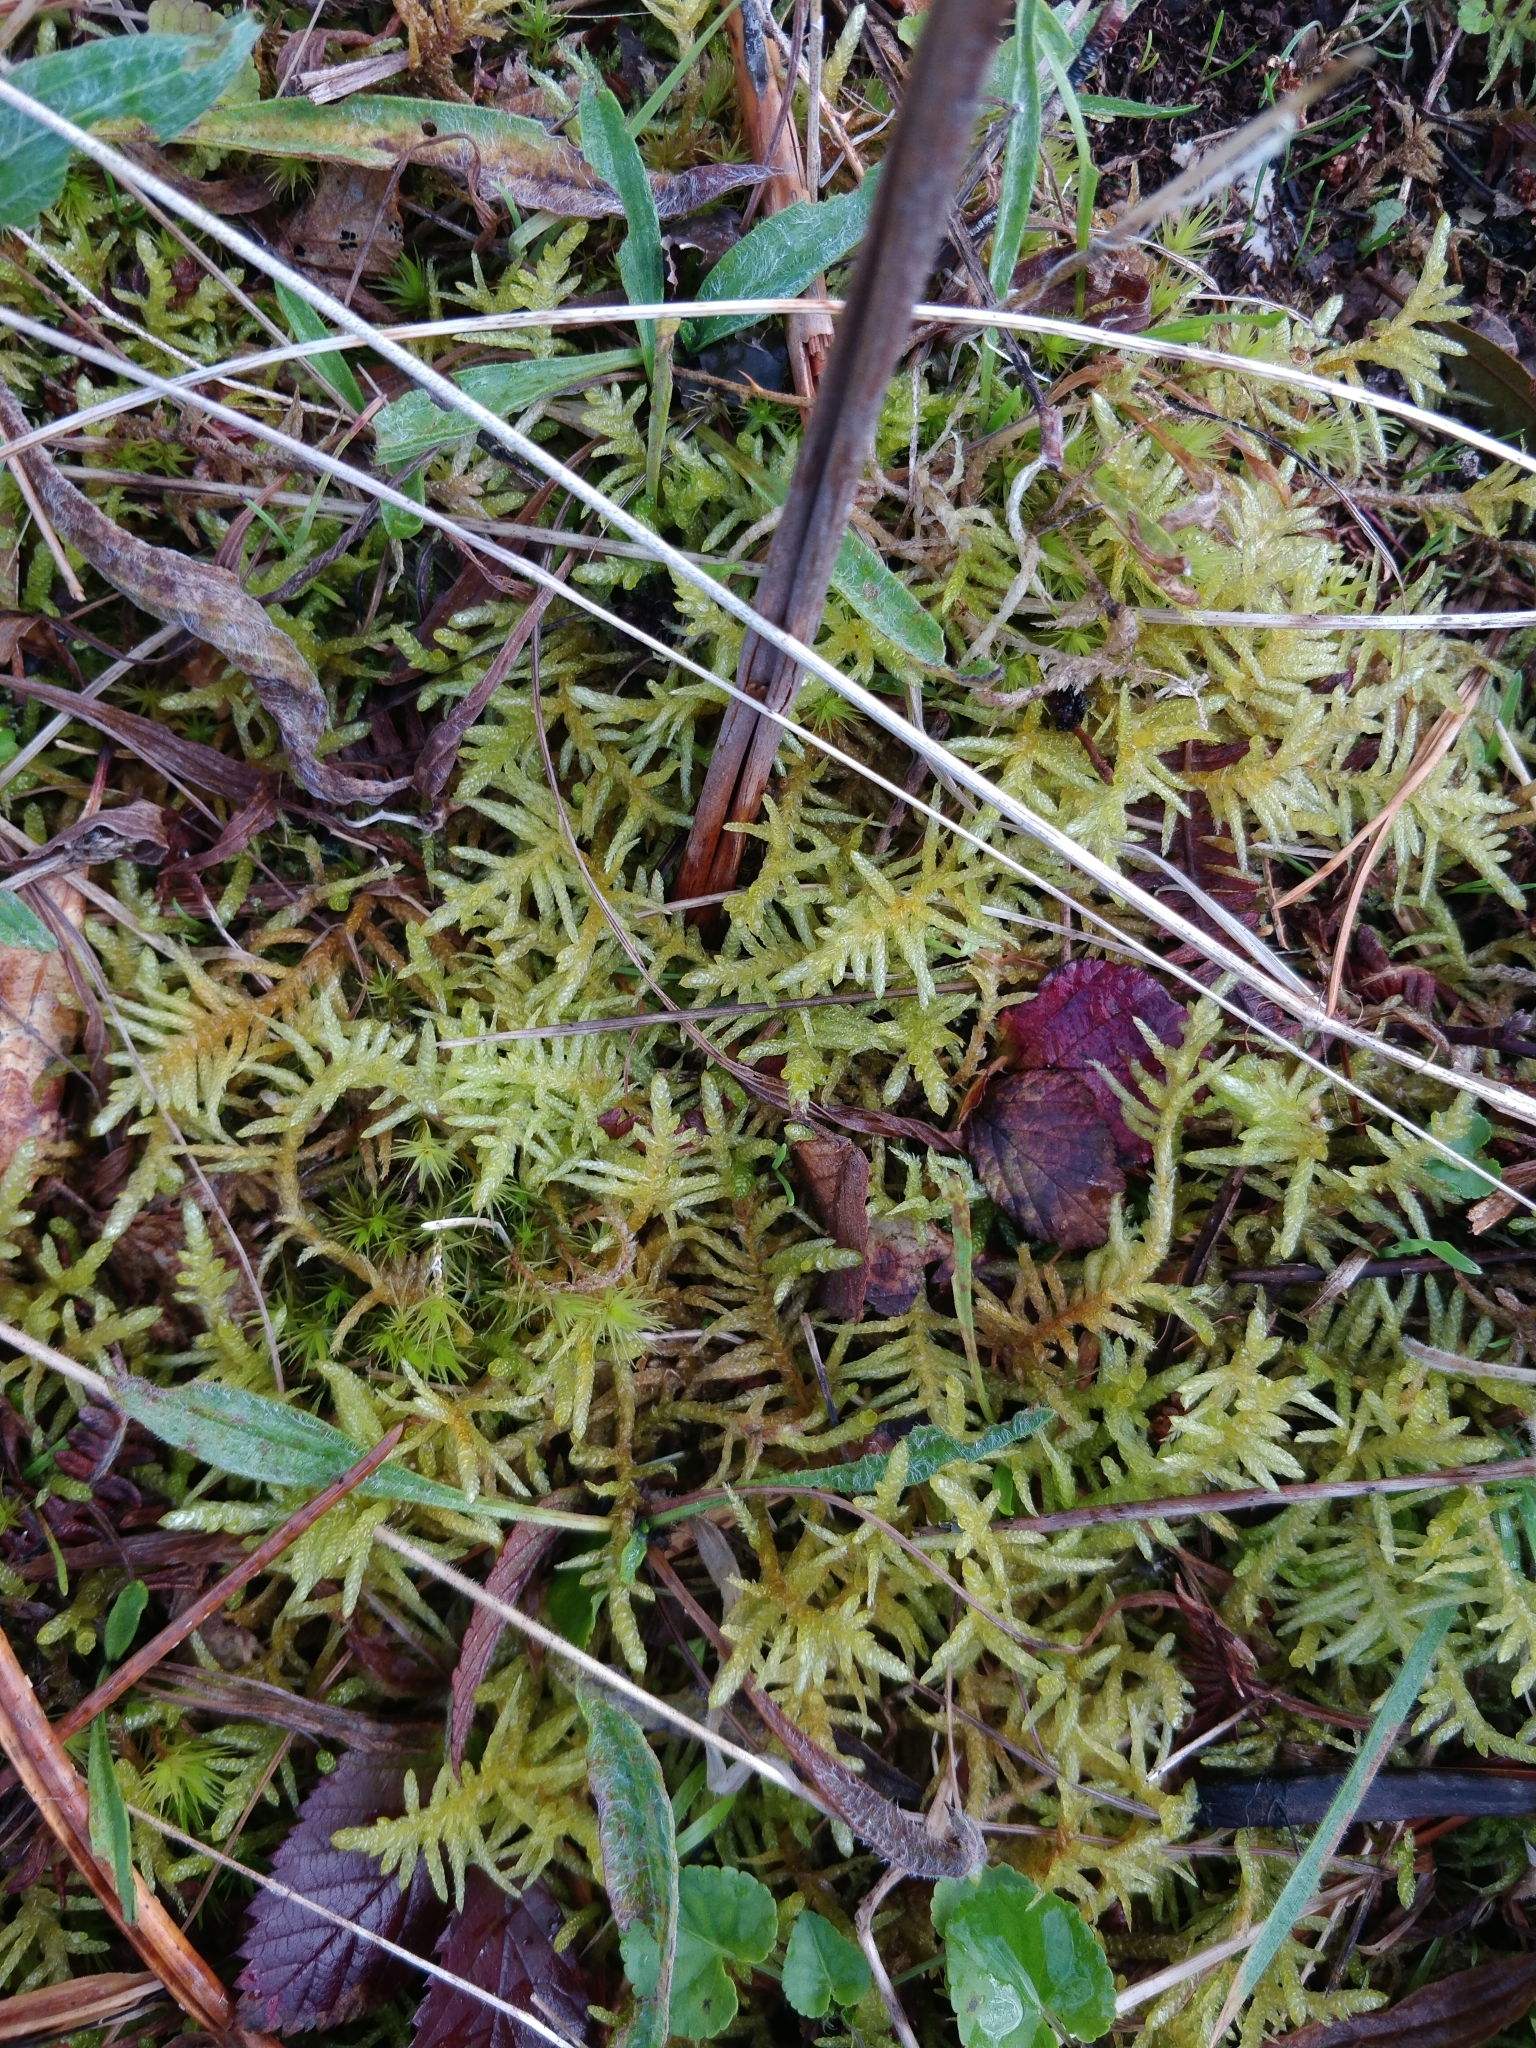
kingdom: Plantae
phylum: Bryophyta
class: Bryopsida
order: Hypnales
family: Brachytheciaceae
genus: Pseudoscleropodium
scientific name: Pseudoscleropodium purum
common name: Neat feather-moss
